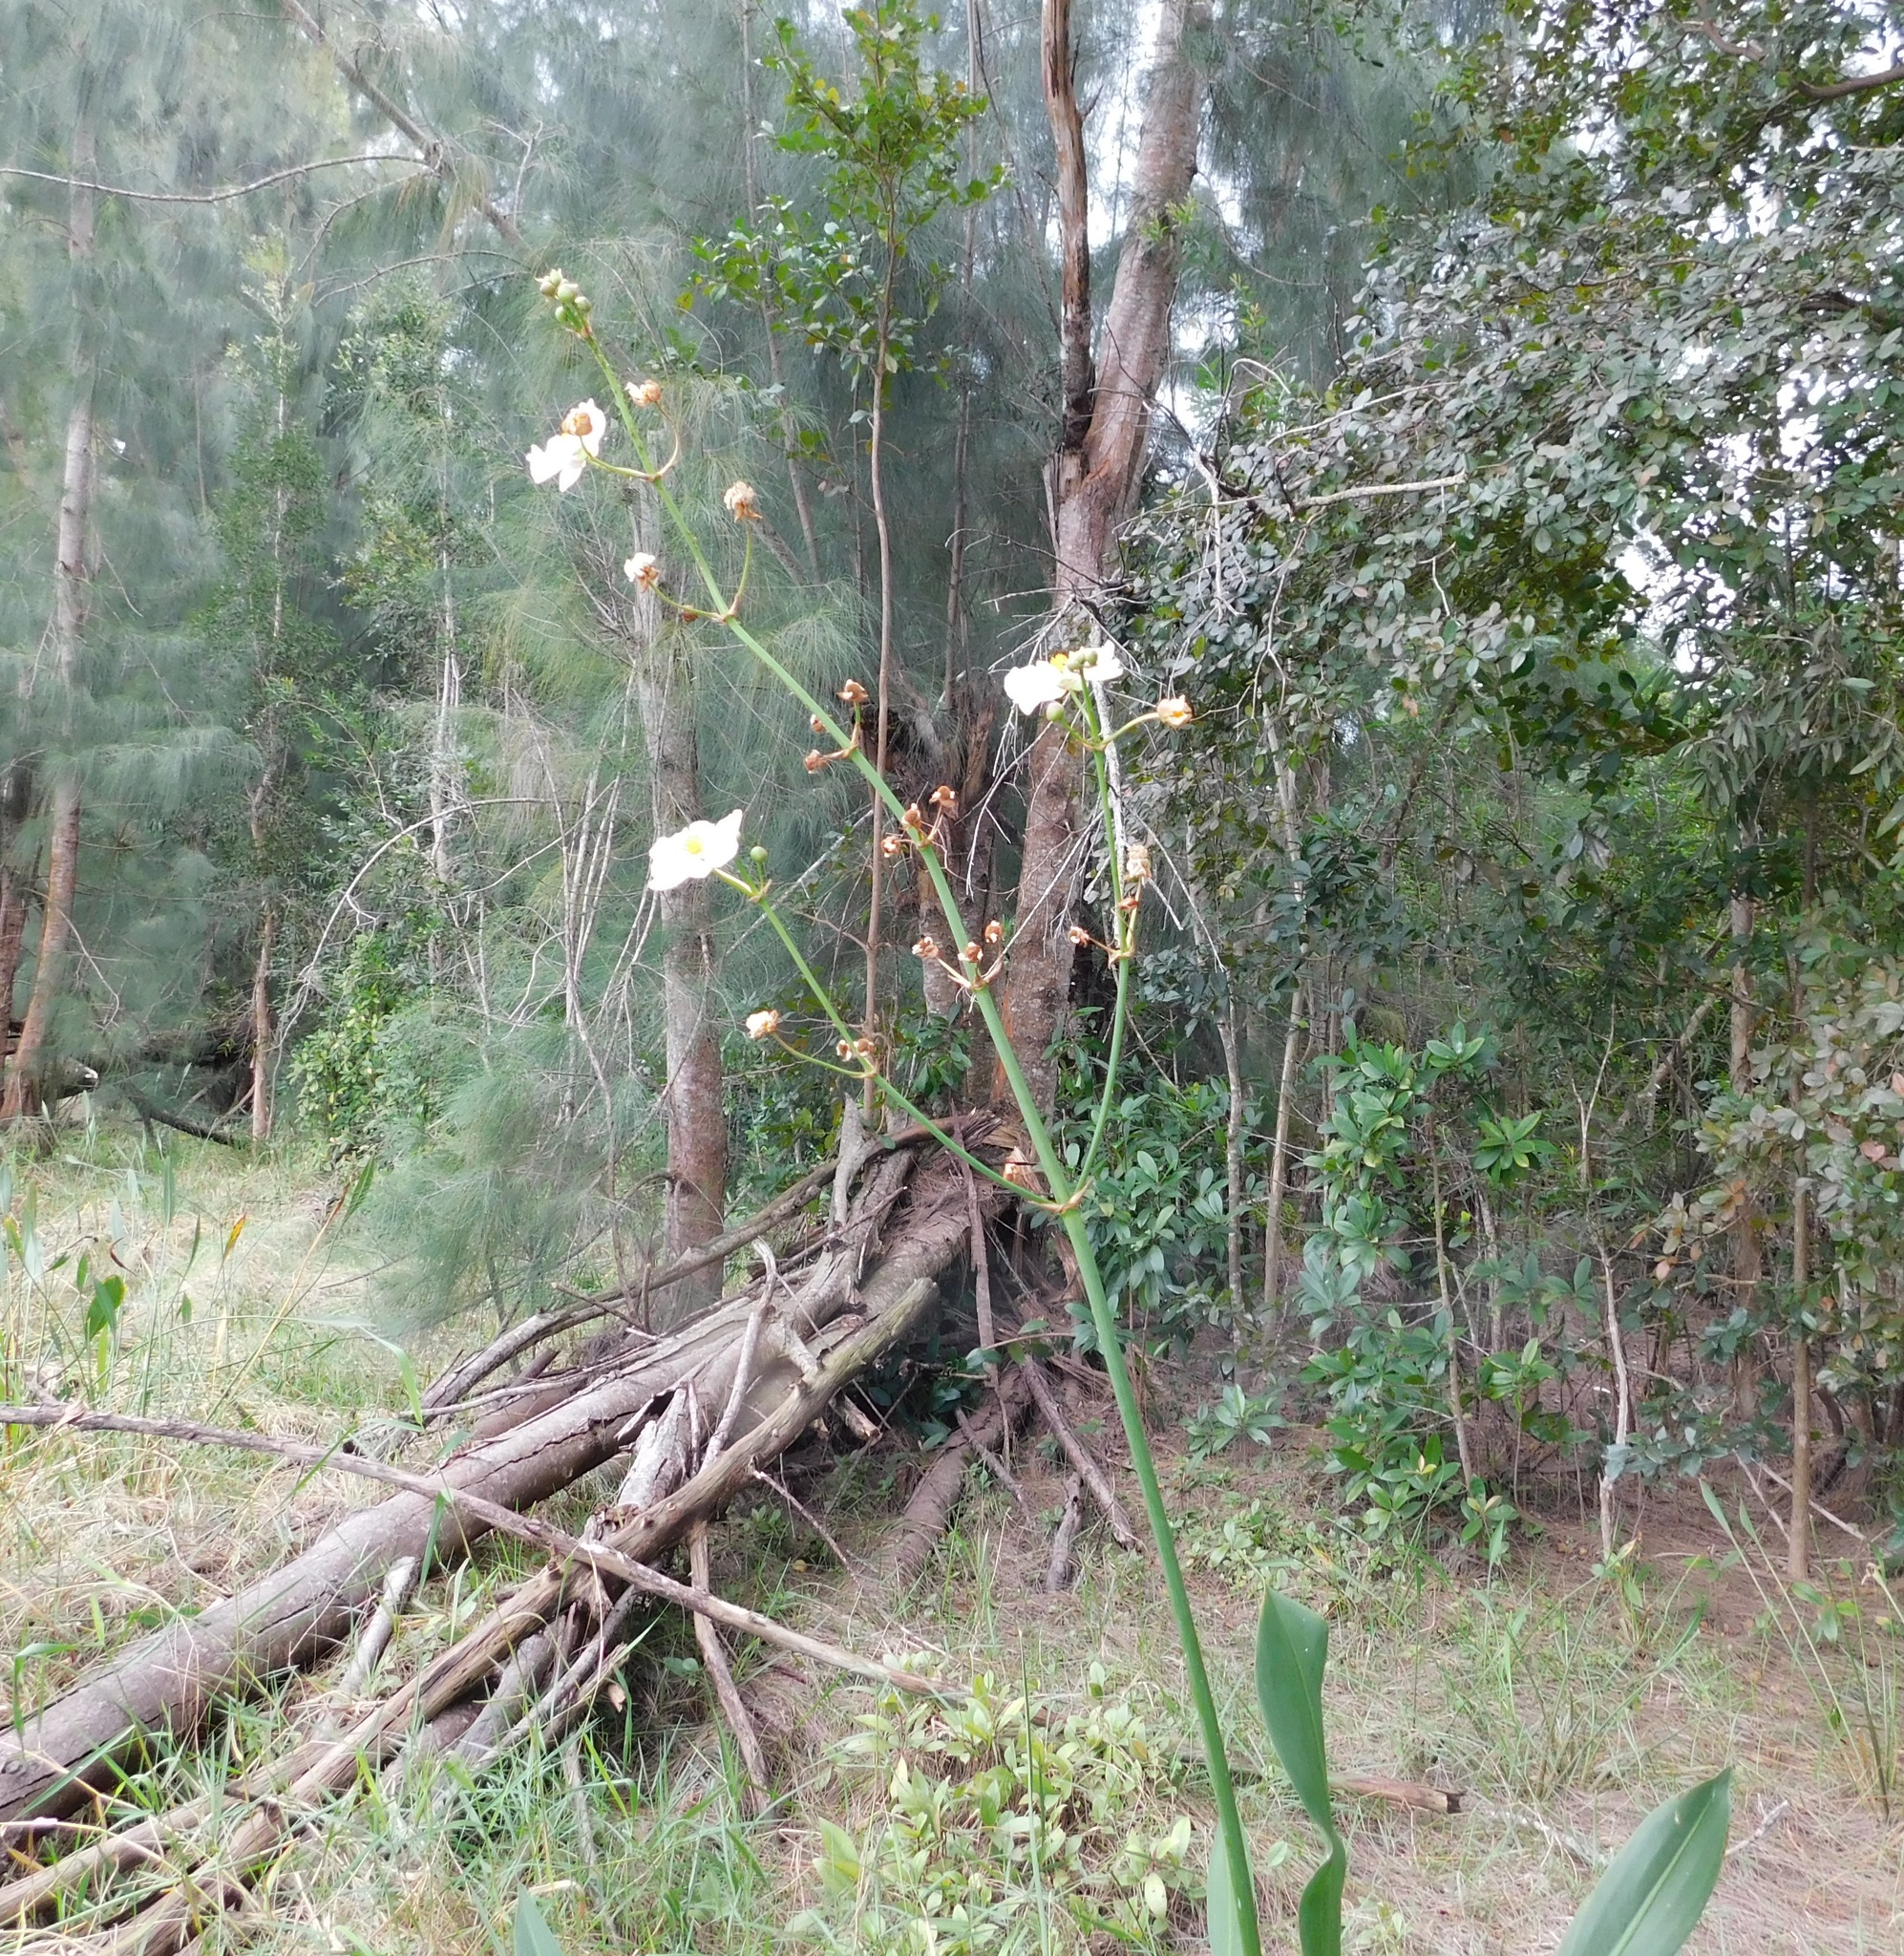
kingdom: Plantae
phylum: Tracheophyta
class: Liliopsida
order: Alismatales
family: Alismataceae
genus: Sagittaria
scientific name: Sagittaria lancifolia
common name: Lance-leaf arrowhead
